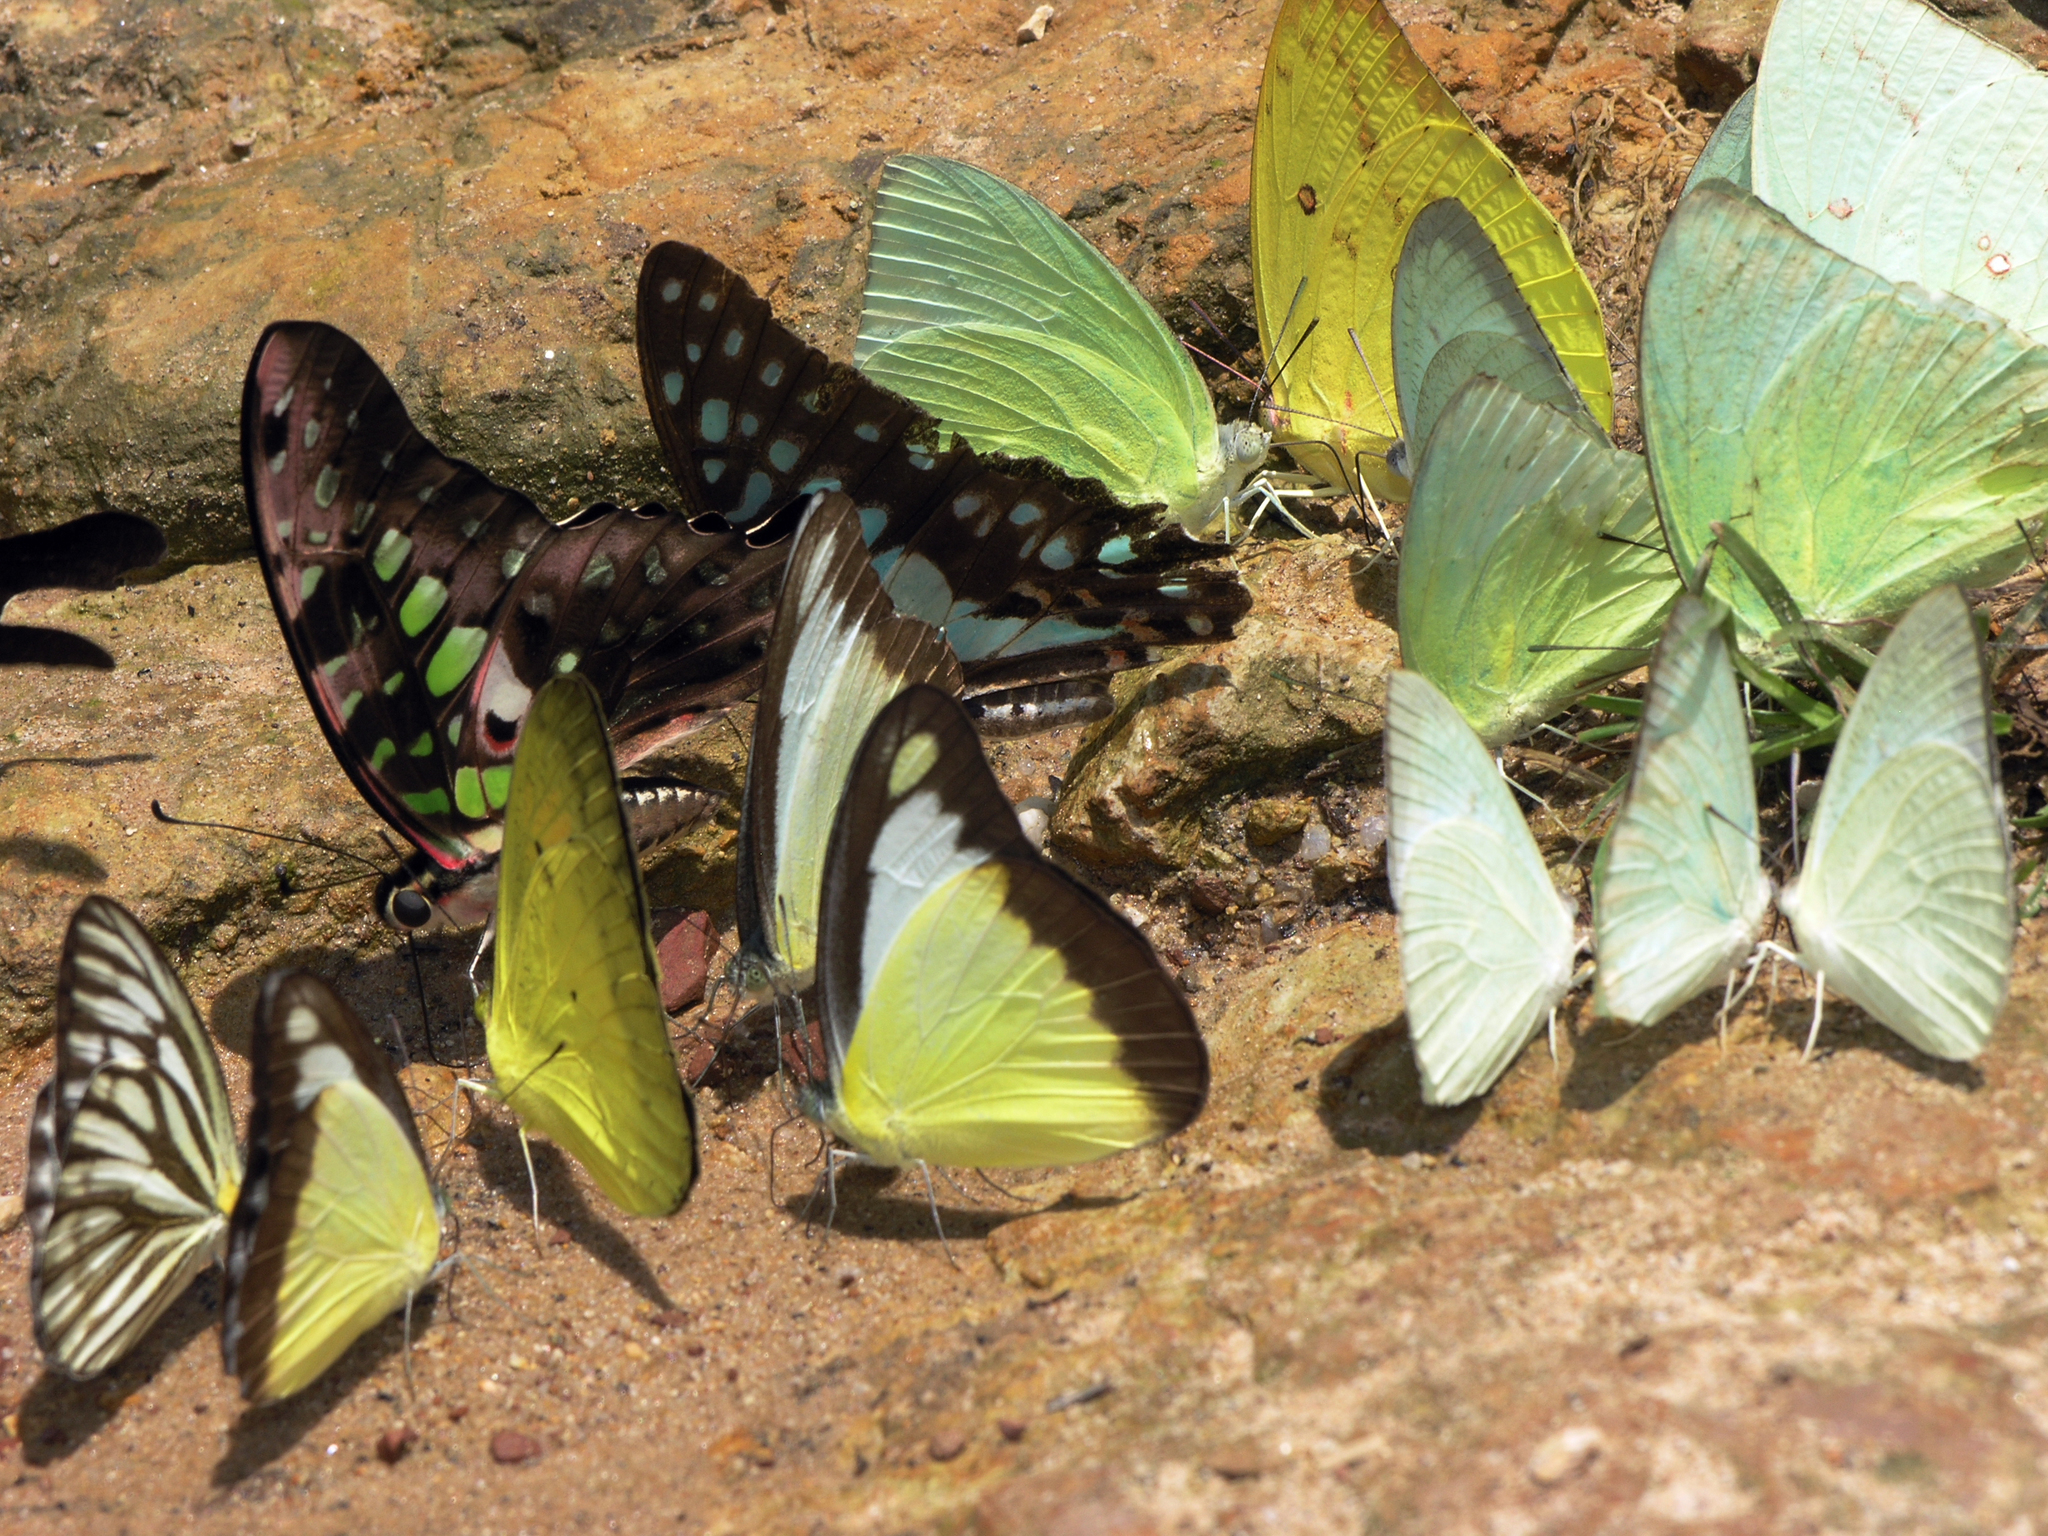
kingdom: Animalia
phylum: Arthropoda
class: Insecta
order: Lepidoptera
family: Papilionidae
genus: Graphium
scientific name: Graphium agamemnon
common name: Tailed jay
